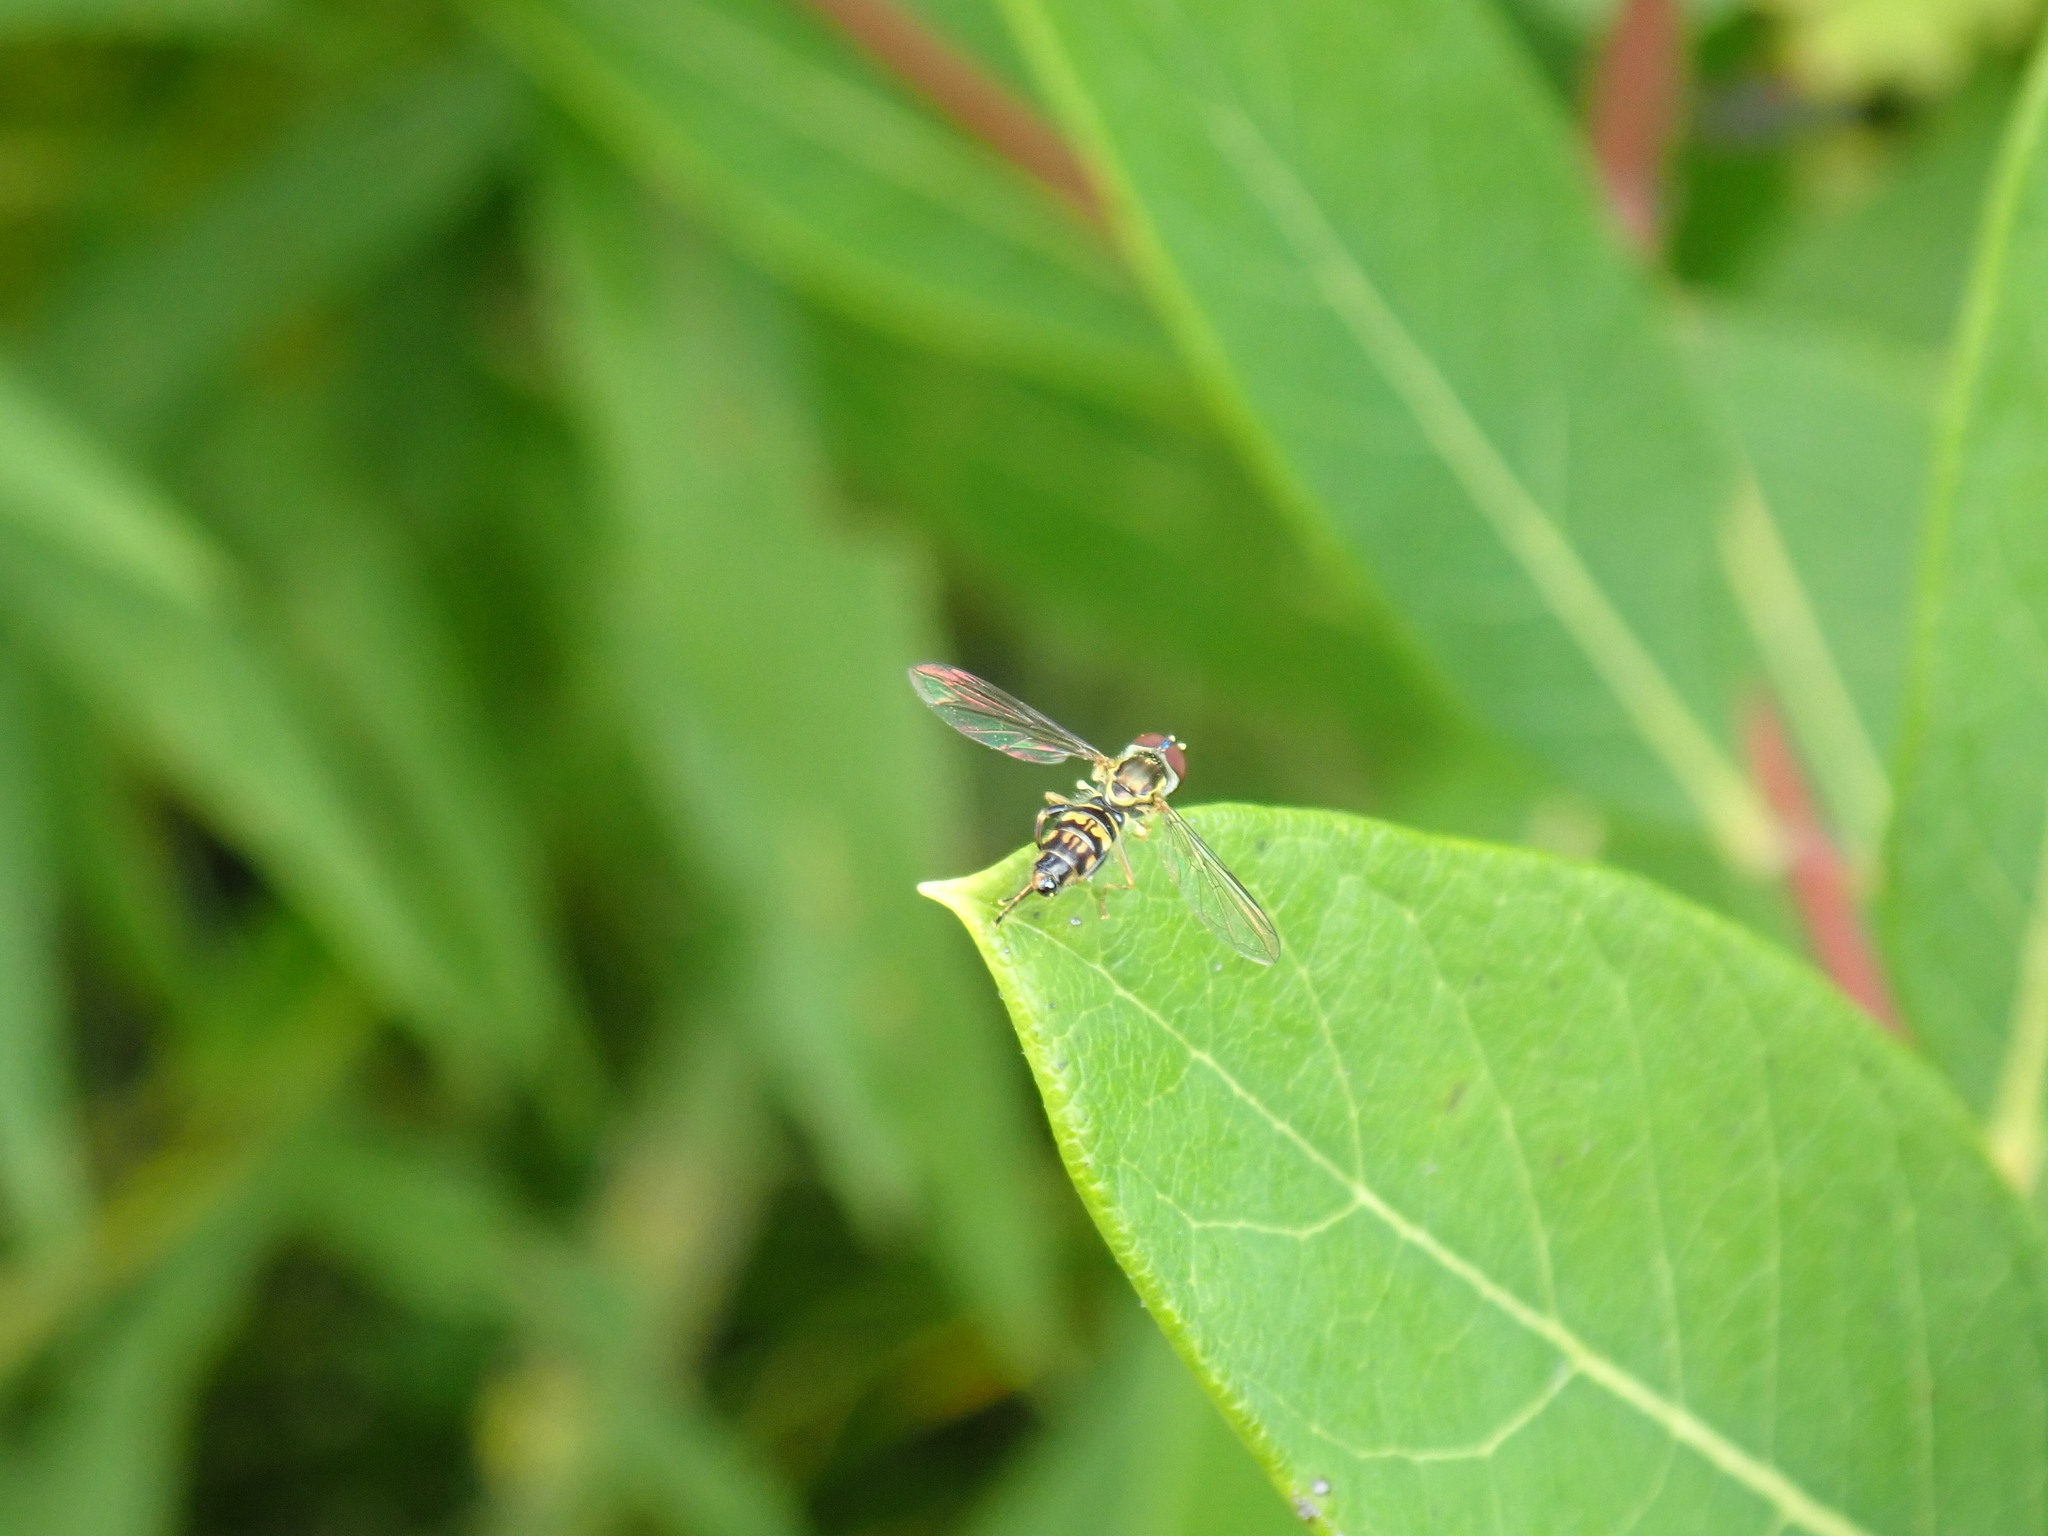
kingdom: Animalia
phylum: Arthropoda
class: Insecta
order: Diptera
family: Syrphidae
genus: Toxomerus
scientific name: Toxomerus geminatus
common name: Eastern calligrapher
